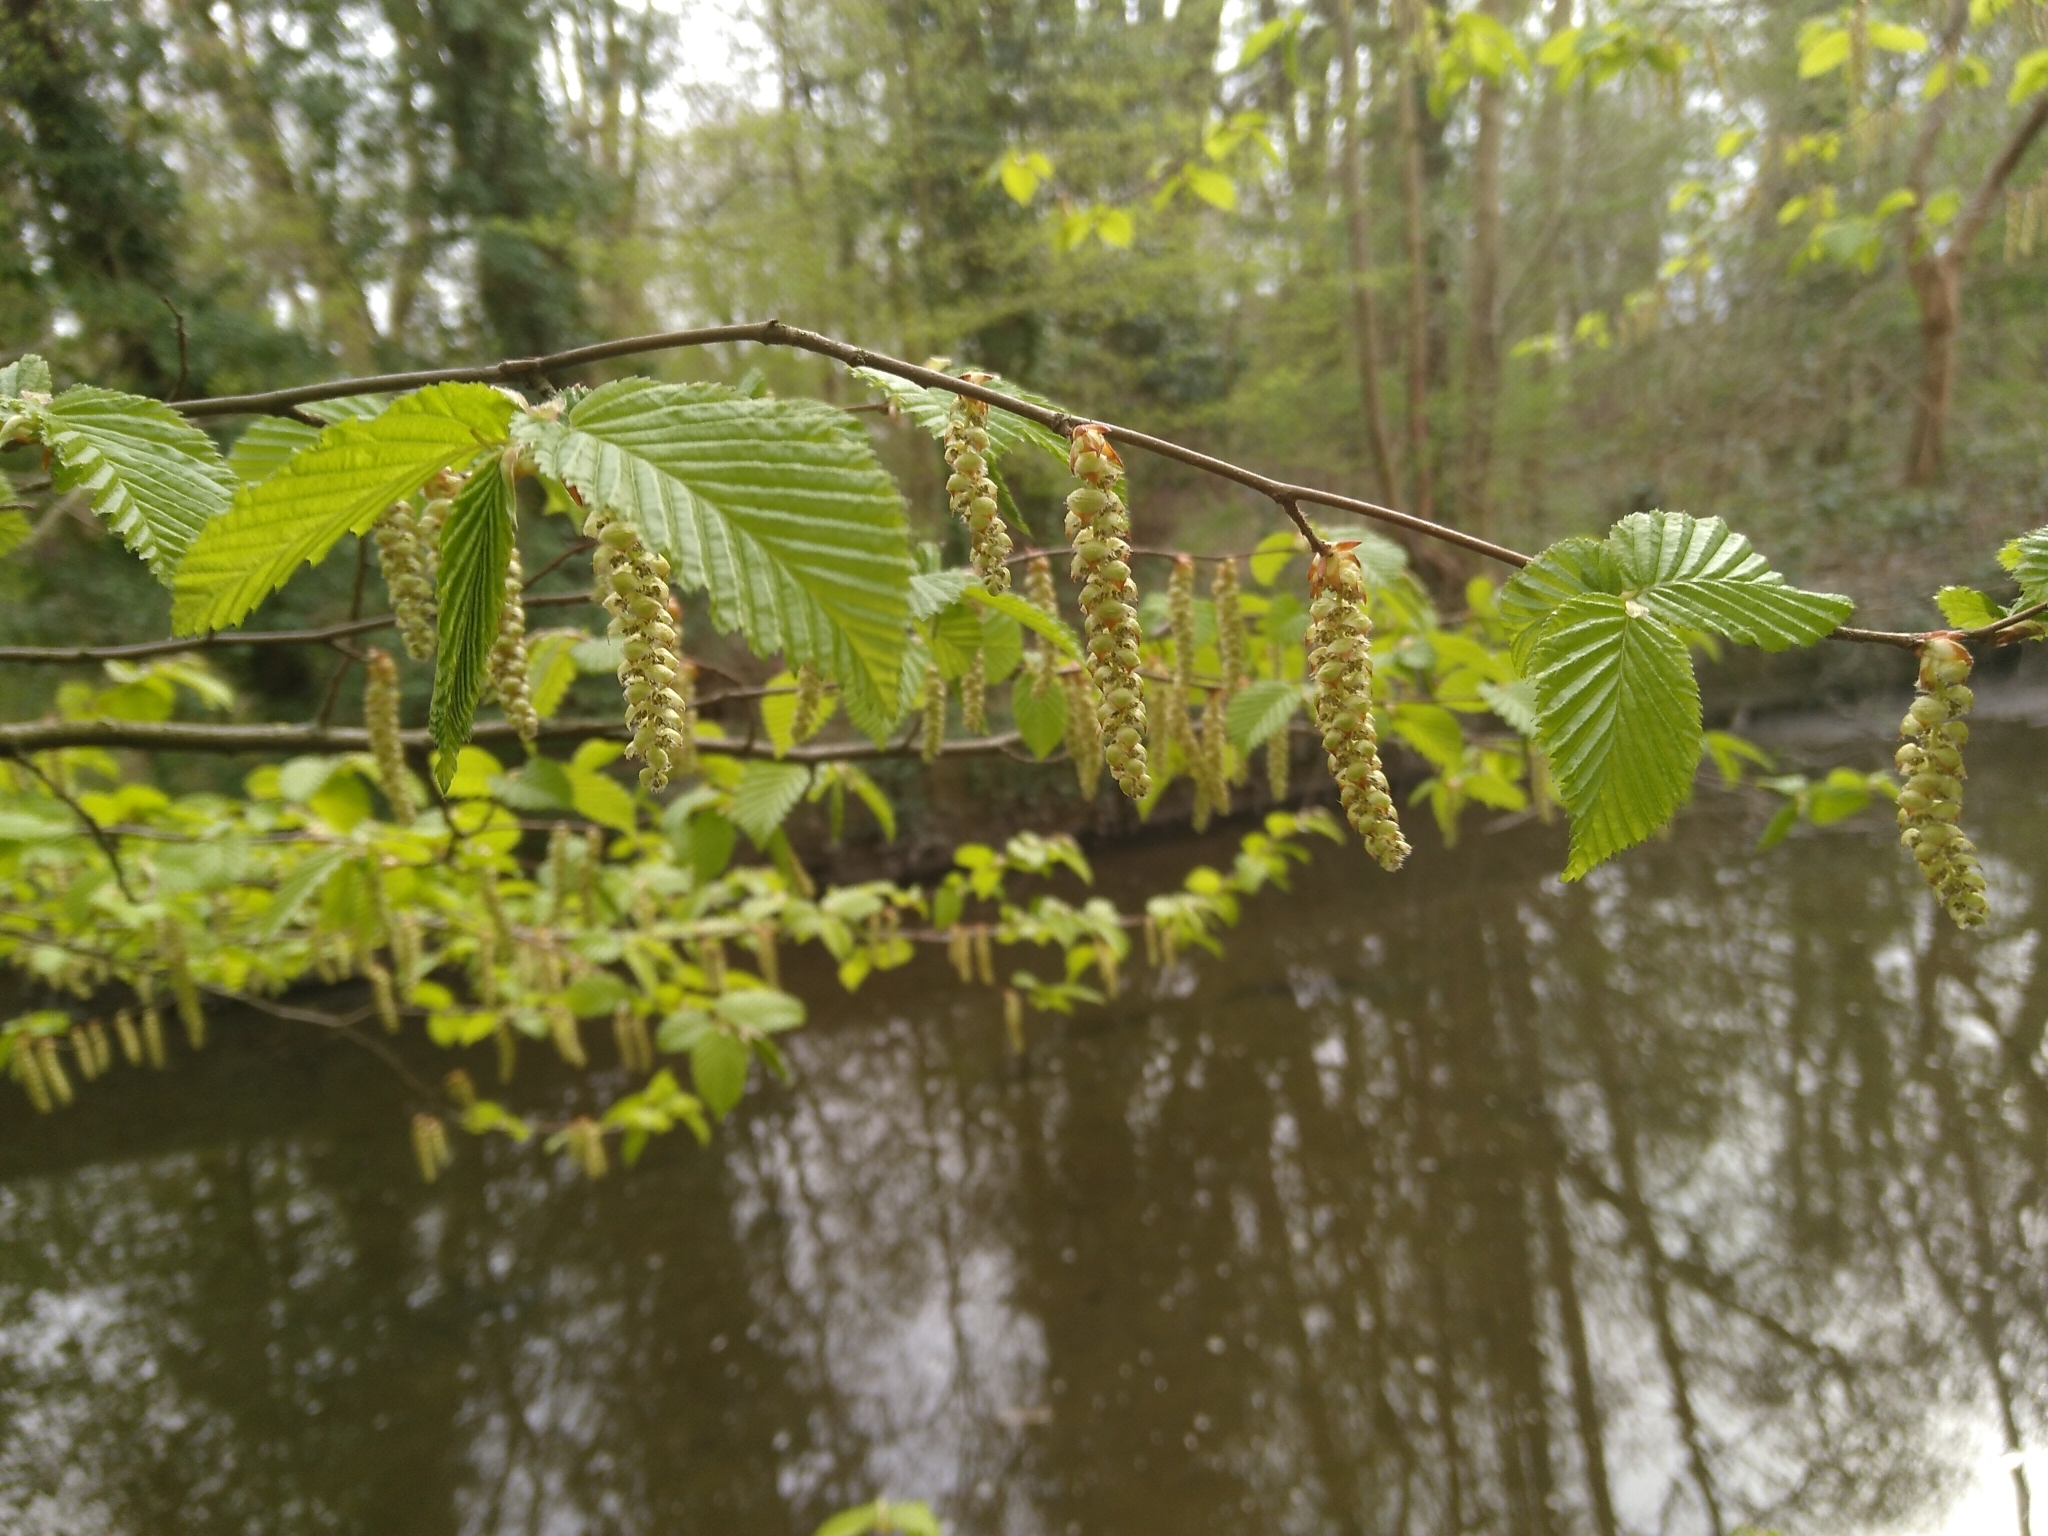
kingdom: Plantae
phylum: Tracheophyta
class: Magnoliopsida
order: Fagales
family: Betulaceae
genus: Carpinus
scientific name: Carpinus betulus
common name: Hornbeam
